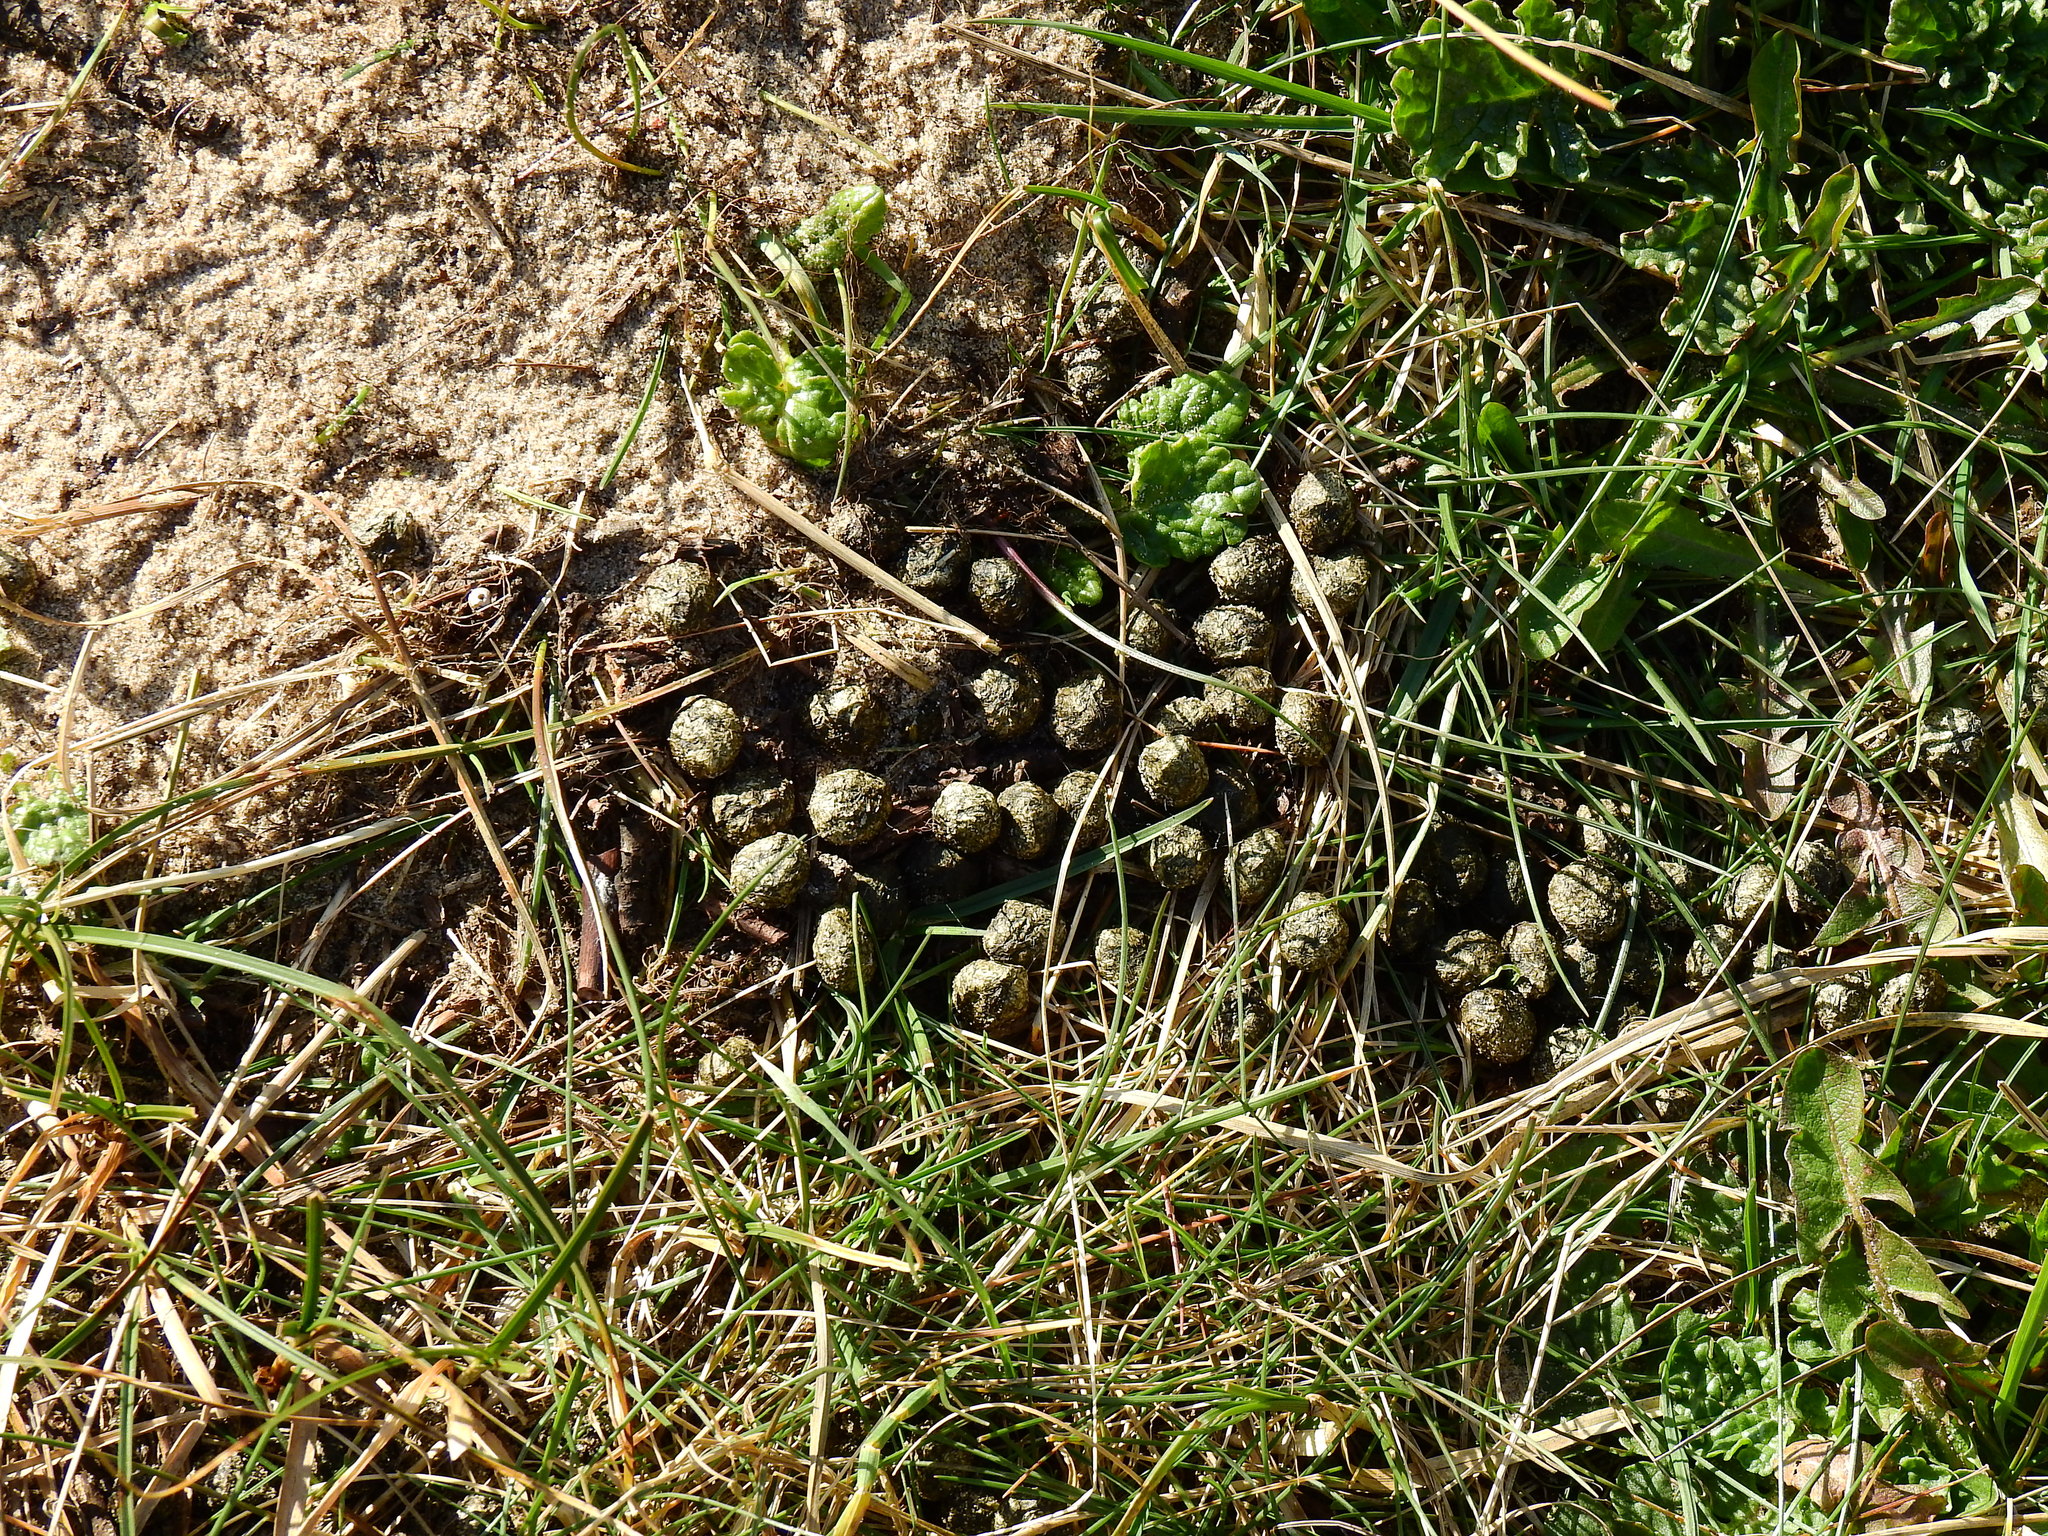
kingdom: Animalia
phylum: Chordata
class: Mammalia
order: Lagomorpha
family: Leporidae
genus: Oryctolagus
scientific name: Oryctolagus cuniculus
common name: European rabbit
